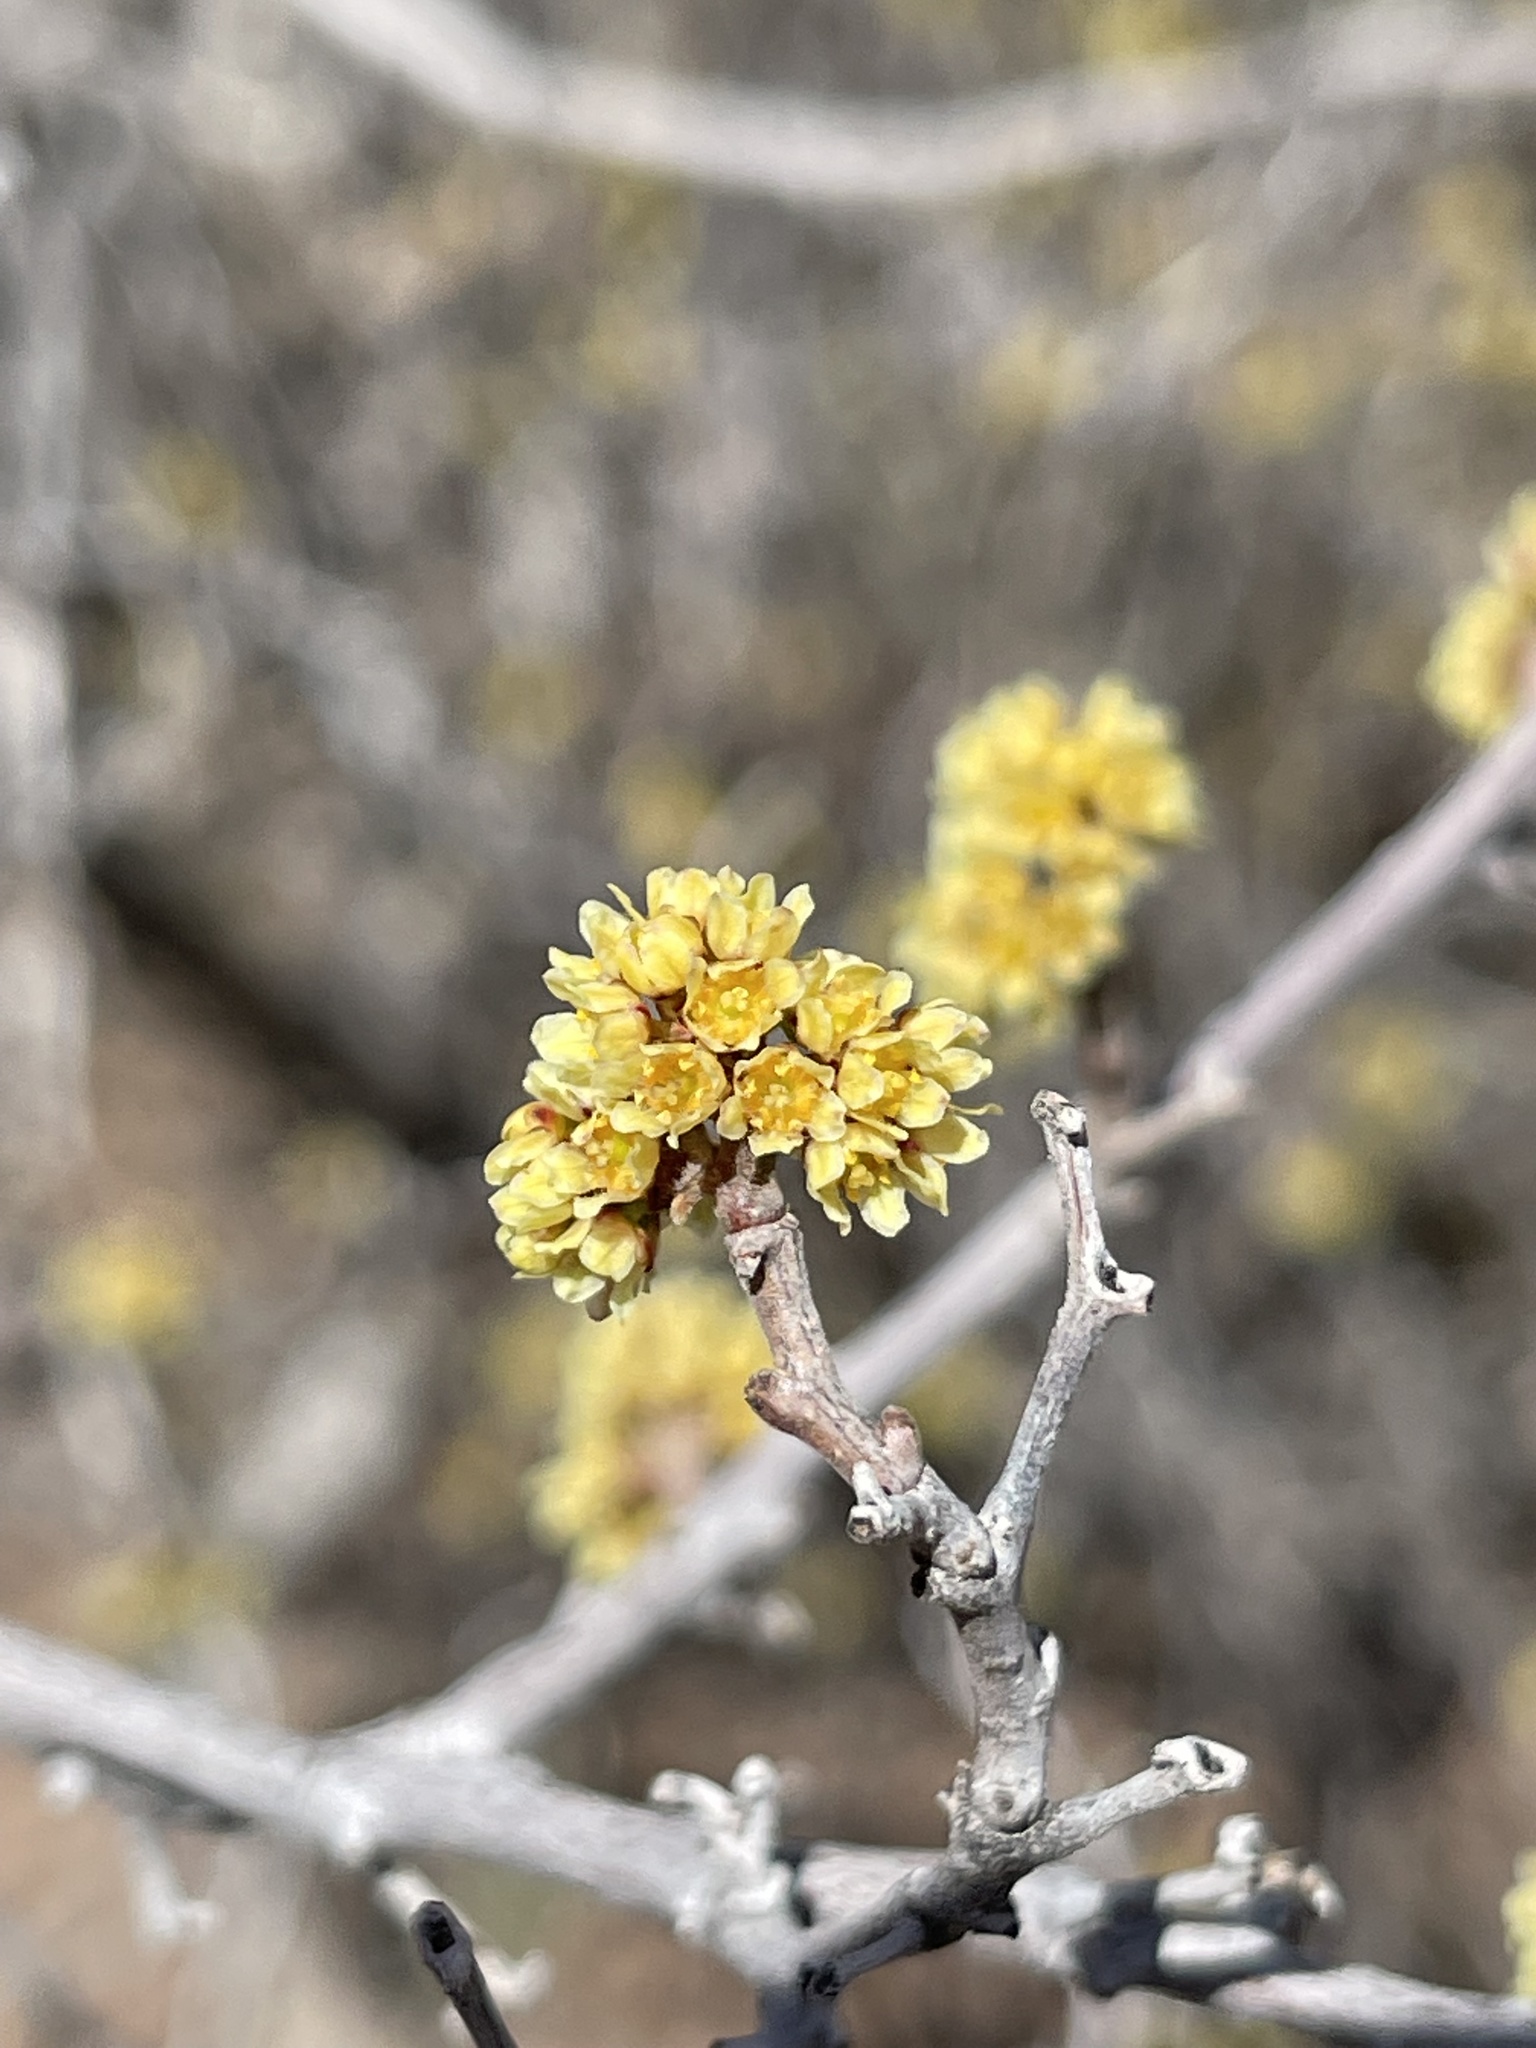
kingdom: Plantae
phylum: Tracheophyta
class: Magnoliopsida
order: Sapindales
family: Anacardiaceae
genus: Rhus
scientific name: Rhus aromatica
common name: Aromatic sumac
